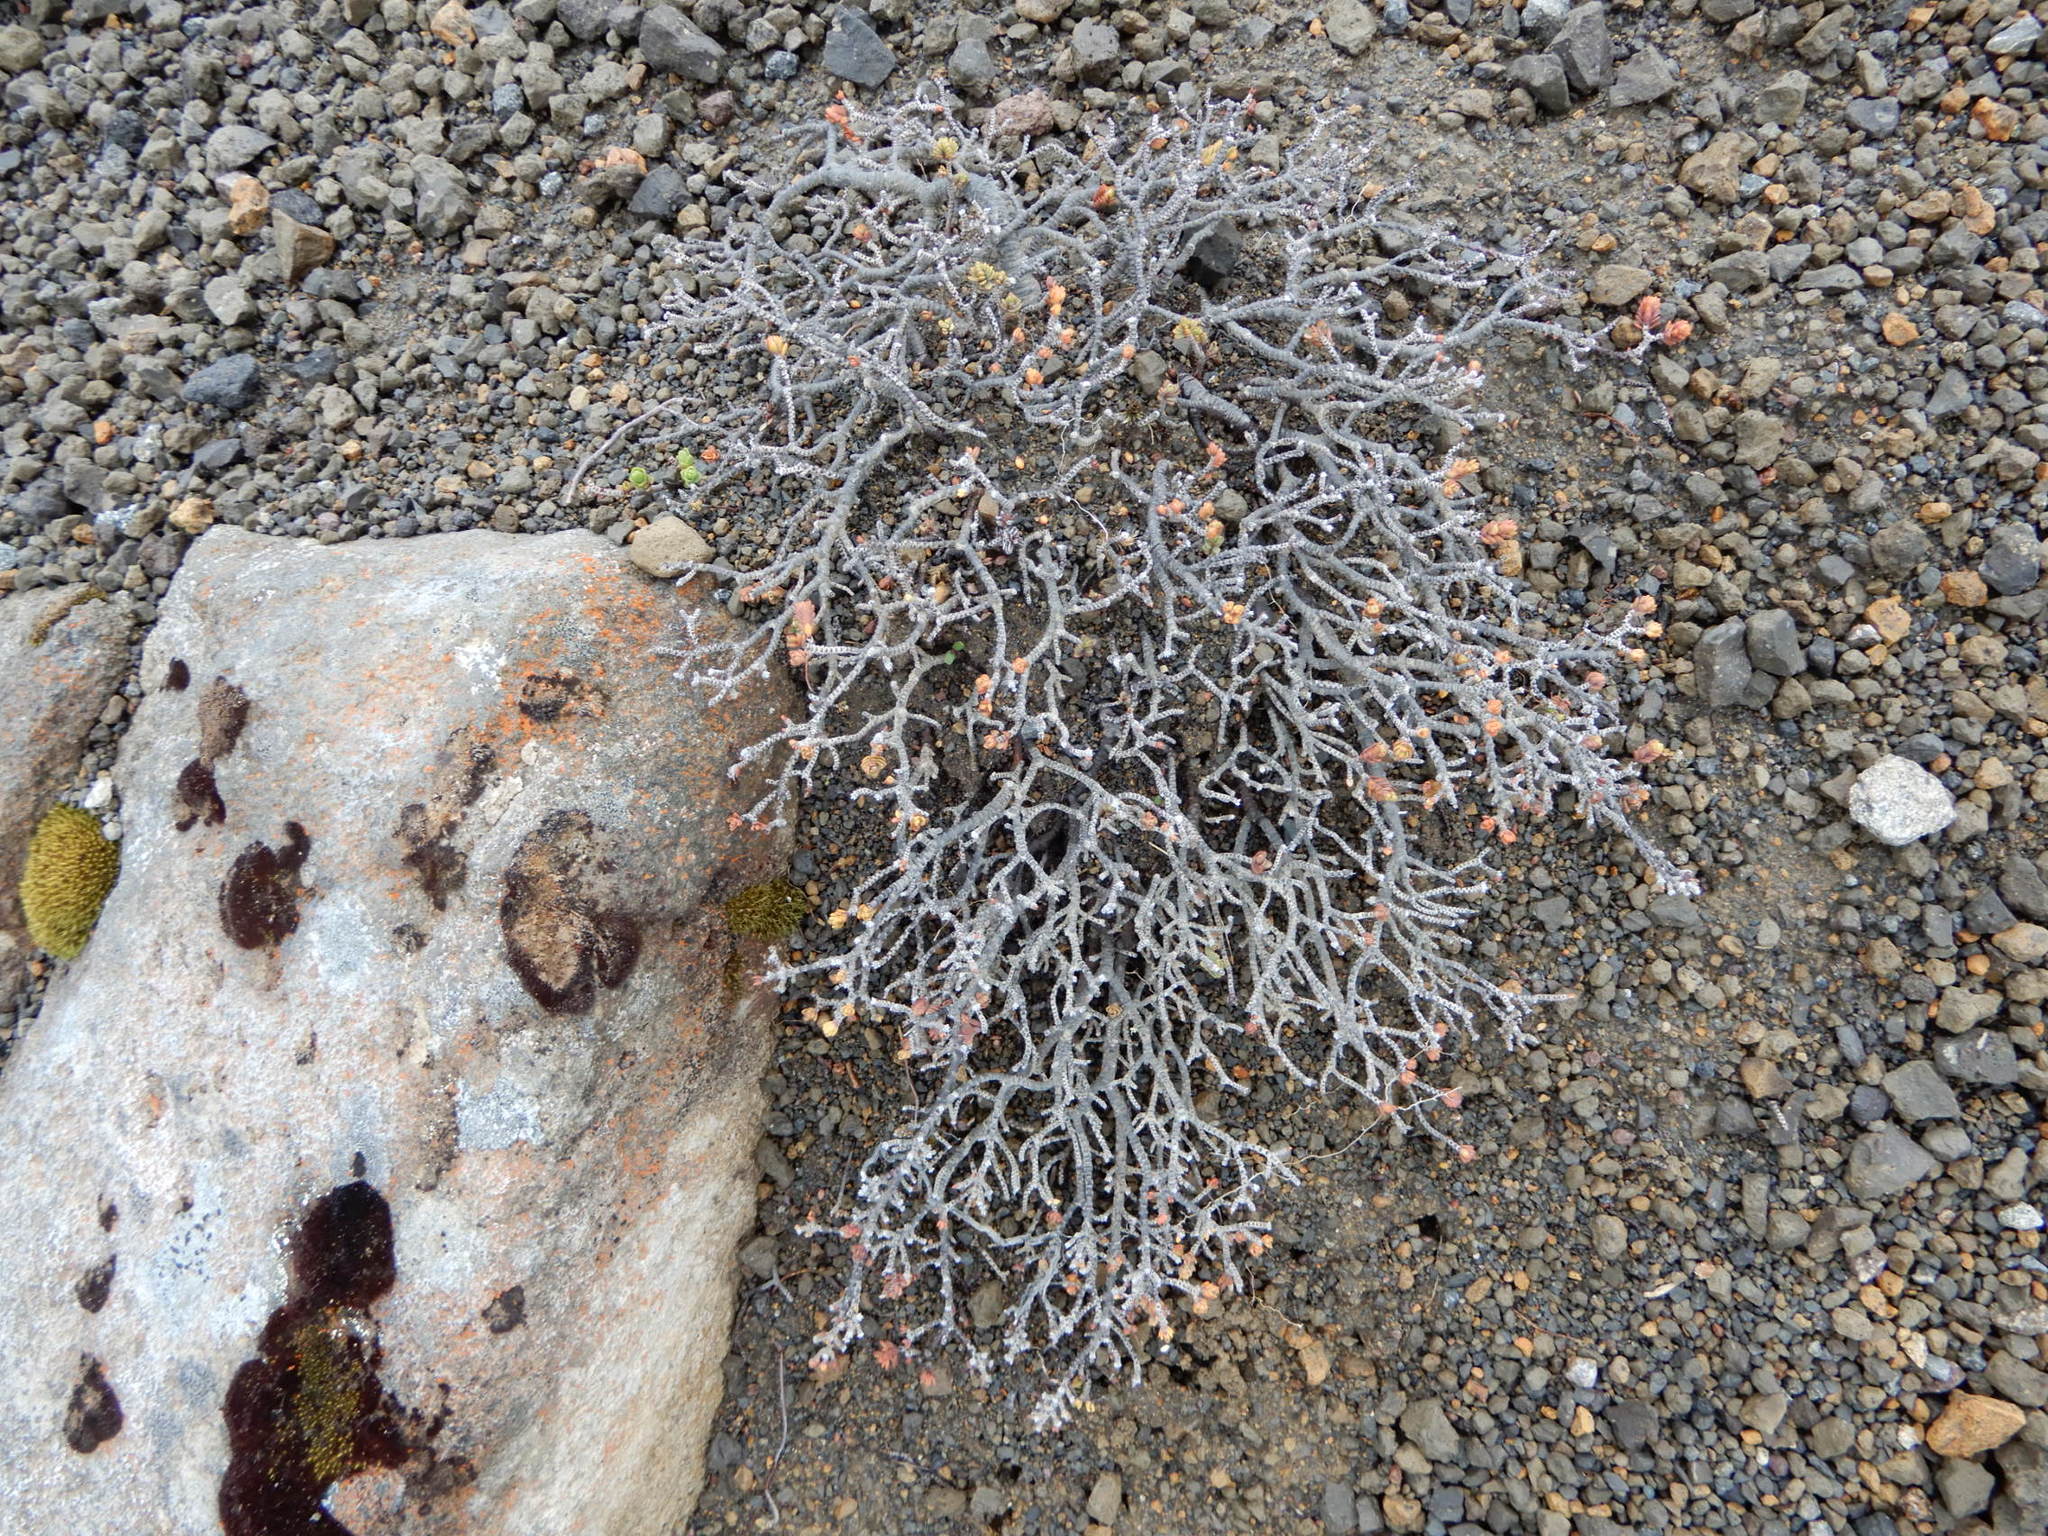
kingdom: Plantae
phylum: Tracheophyta
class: Magnoliopsida
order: Malvales
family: Thymelaeaceae
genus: Pimelea
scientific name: Pimelea microphylla
